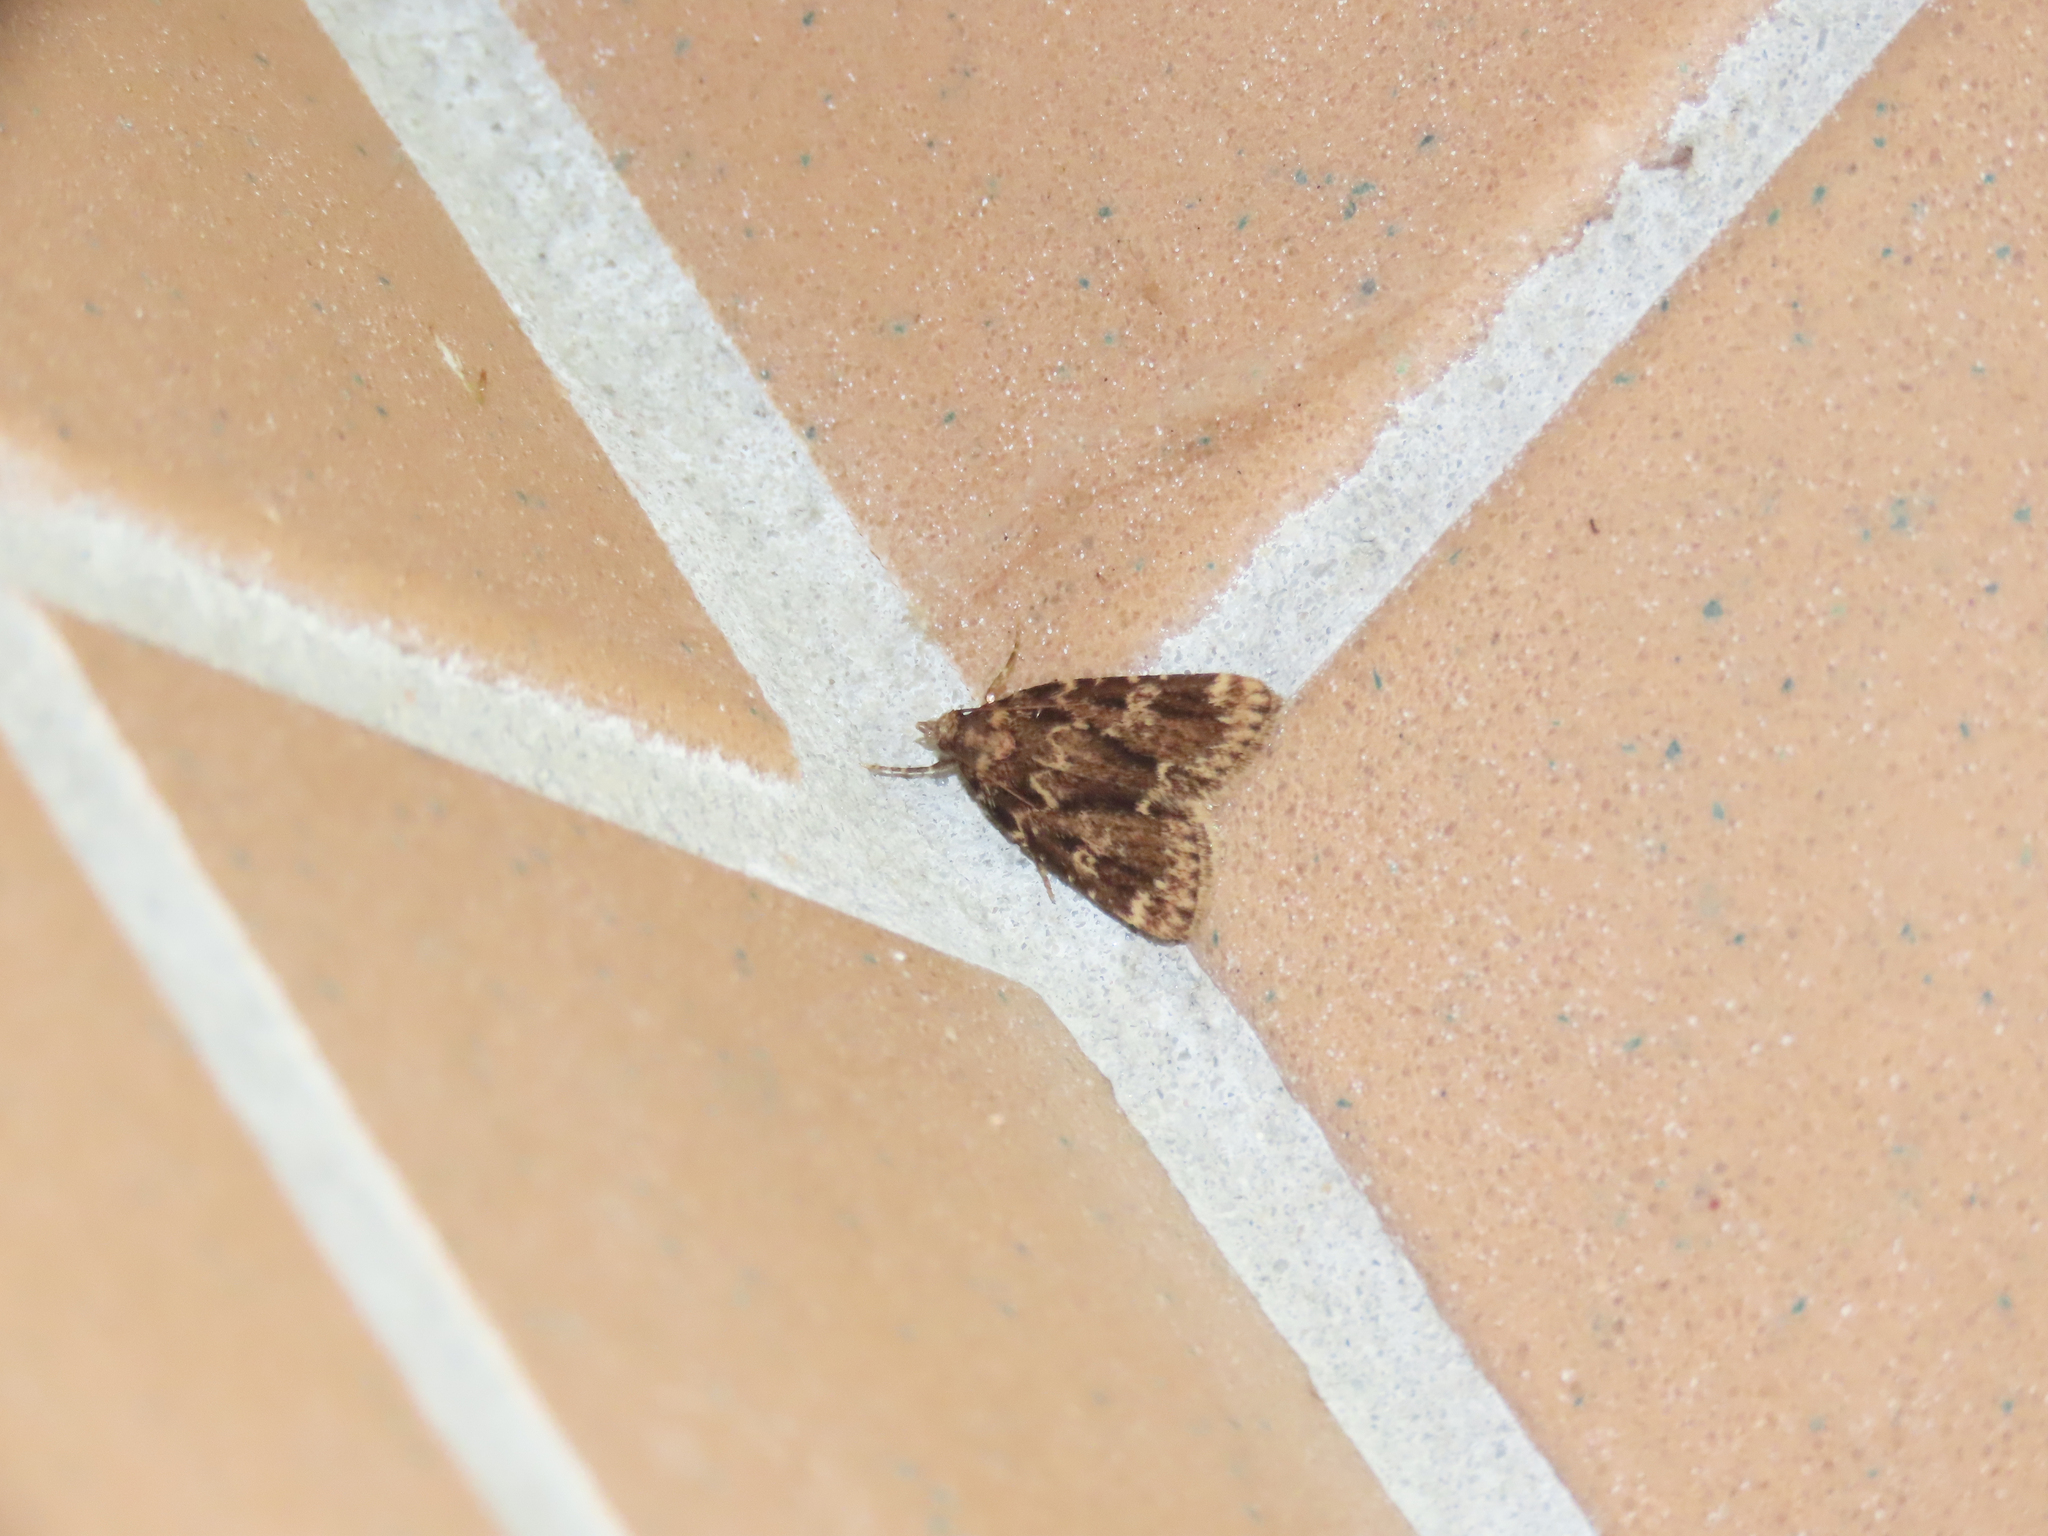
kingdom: Animalia
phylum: Arthropoda
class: Insecta
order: Lepidoptera
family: Pyralidae
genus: Aglossa
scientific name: Aglossa caprealis
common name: Small tabby
